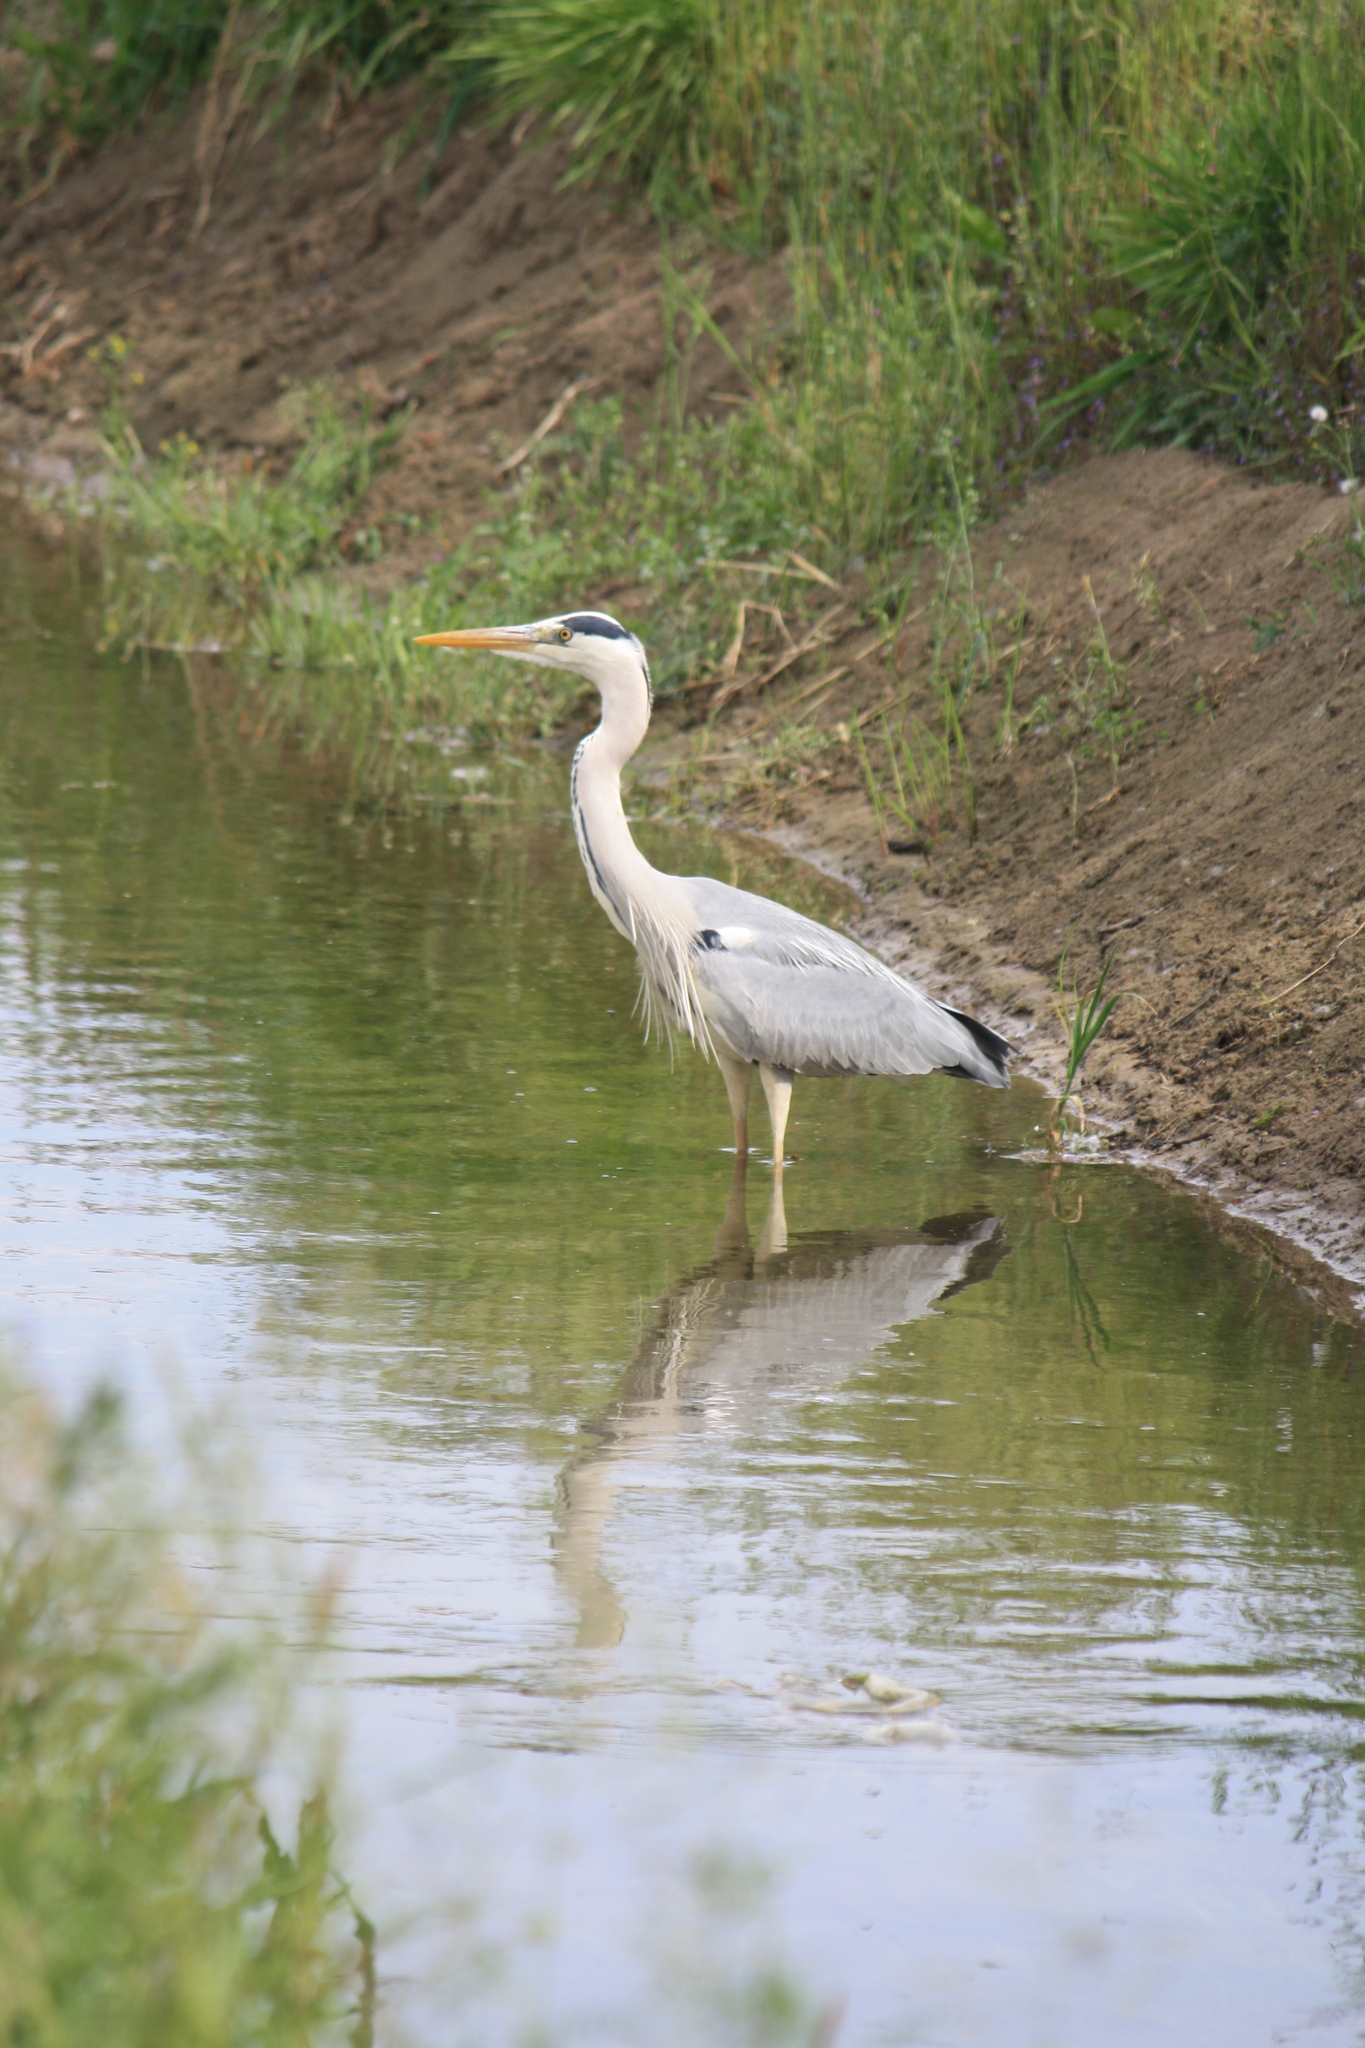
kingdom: Animalia
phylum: Chordata
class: Aves
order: Pelecaniformes
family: Ardeidae
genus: Ardea
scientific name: Ardea cinerea
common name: Grey heron
